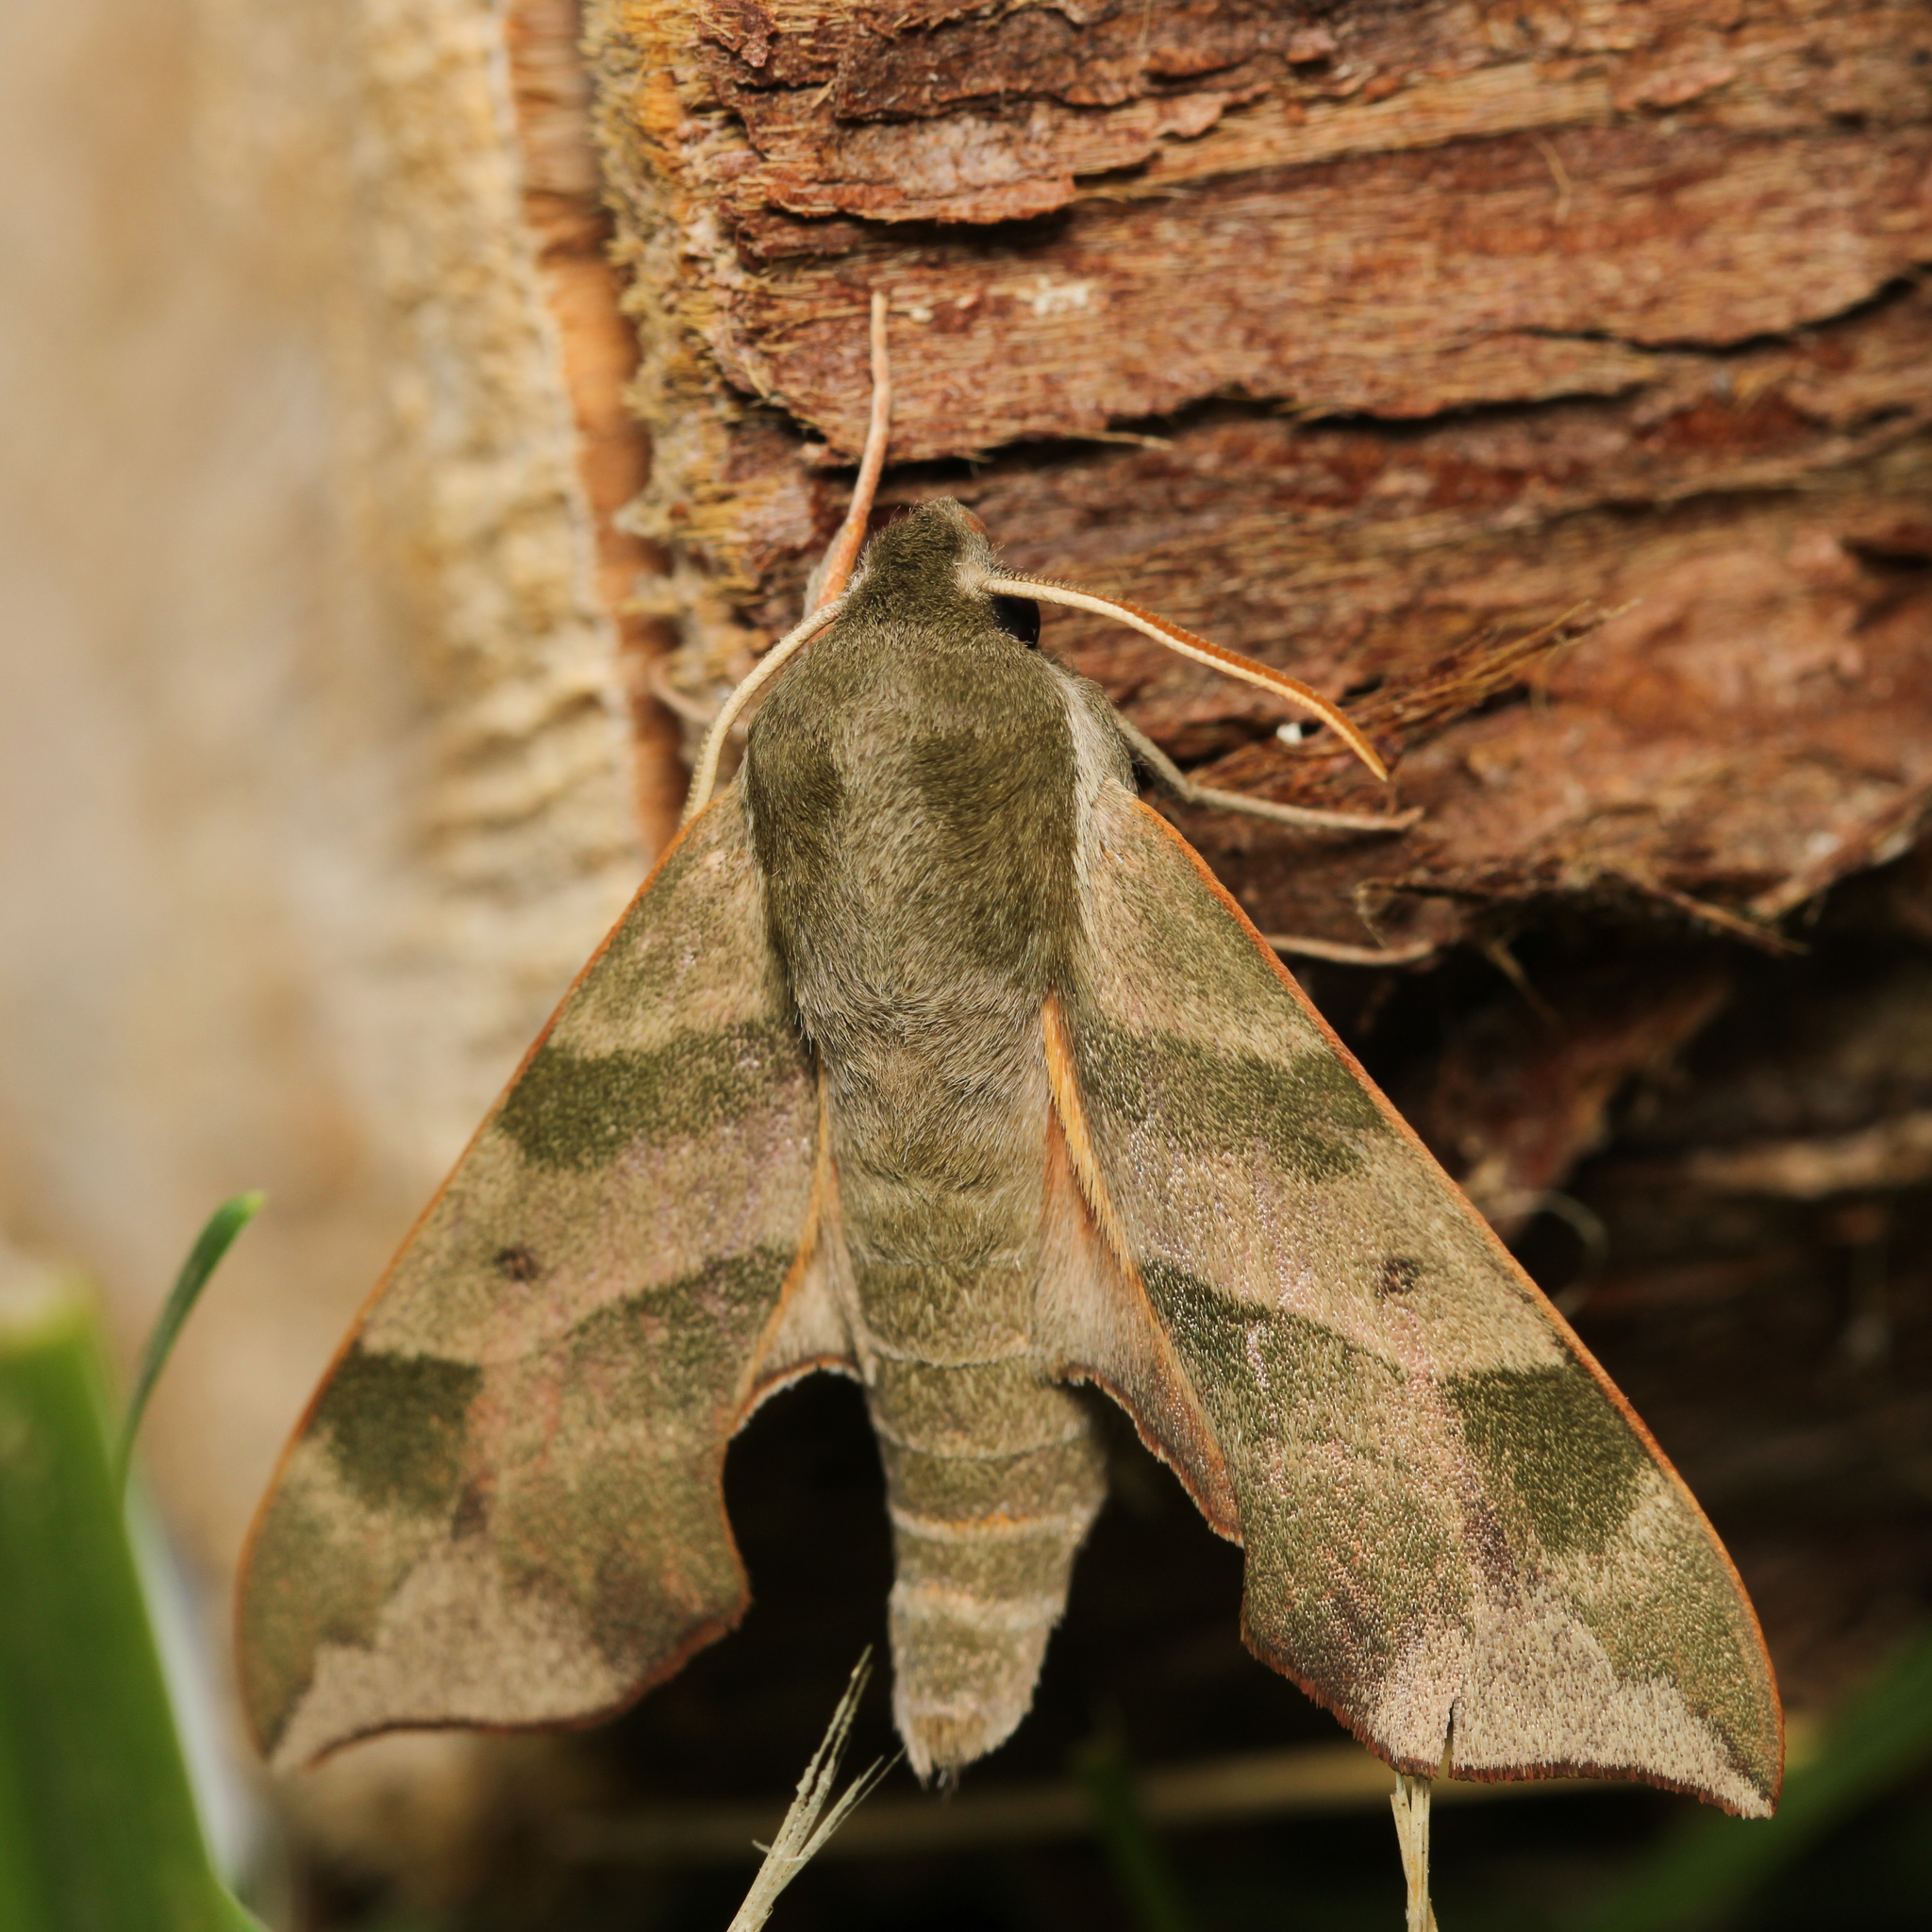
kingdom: Animalia
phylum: Arthropoda
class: Insecta
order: Lepidoptera
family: Sphingidae
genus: Darapsa
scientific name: Darapsa myron
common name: Hog sphinx
